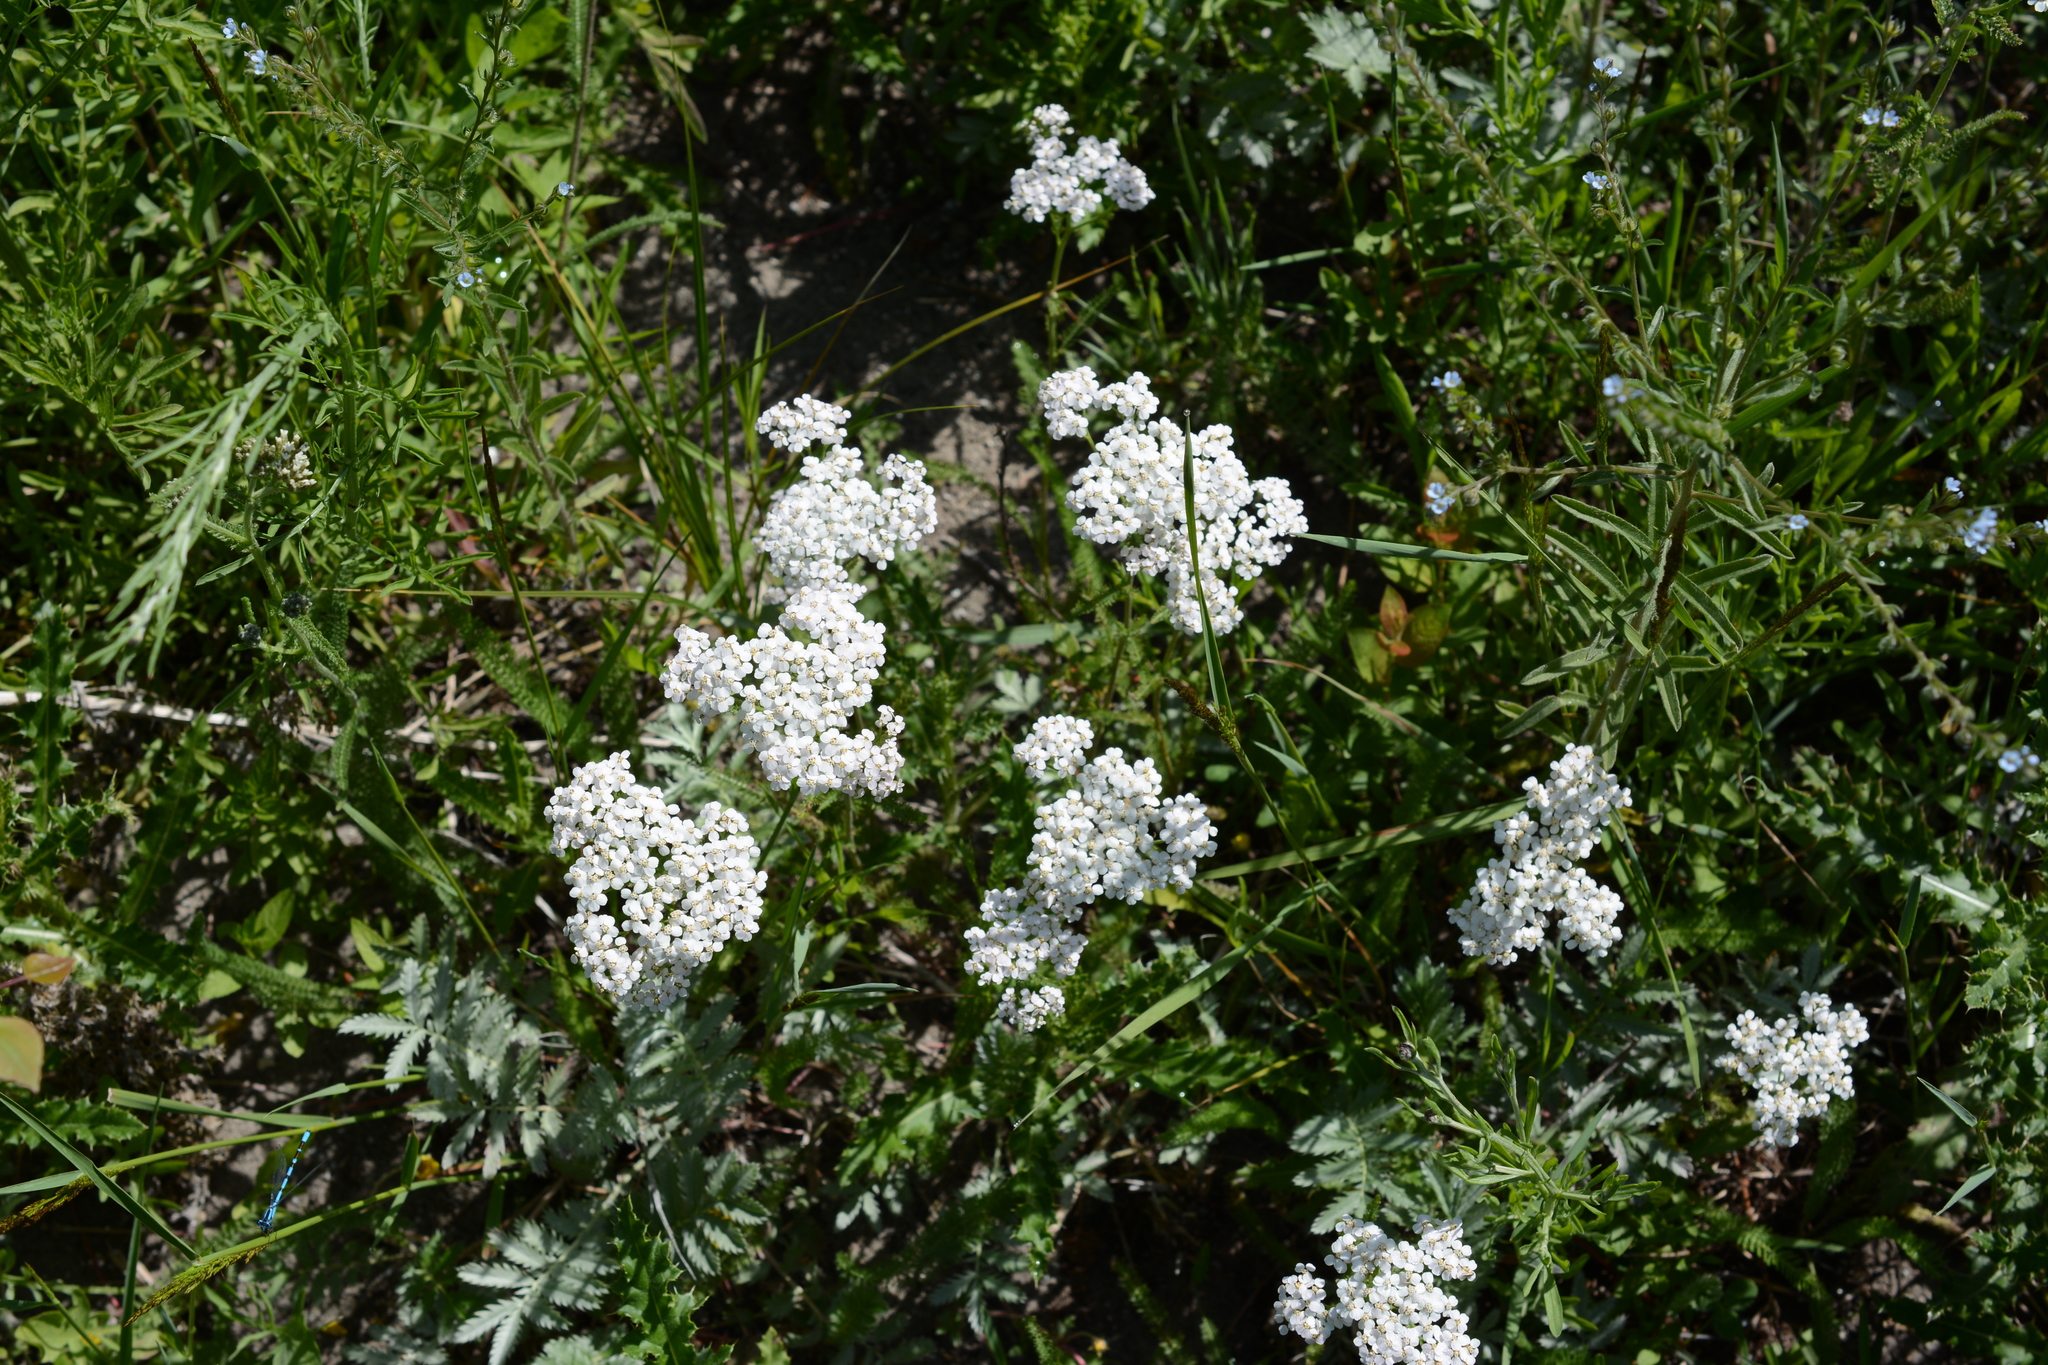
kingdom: Plantae
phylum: Tracheophyta
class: Magnoliopsida
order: Asterales
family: Asteraceae
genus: Achillea
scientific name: Achillea millefolium
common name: Yarrow
